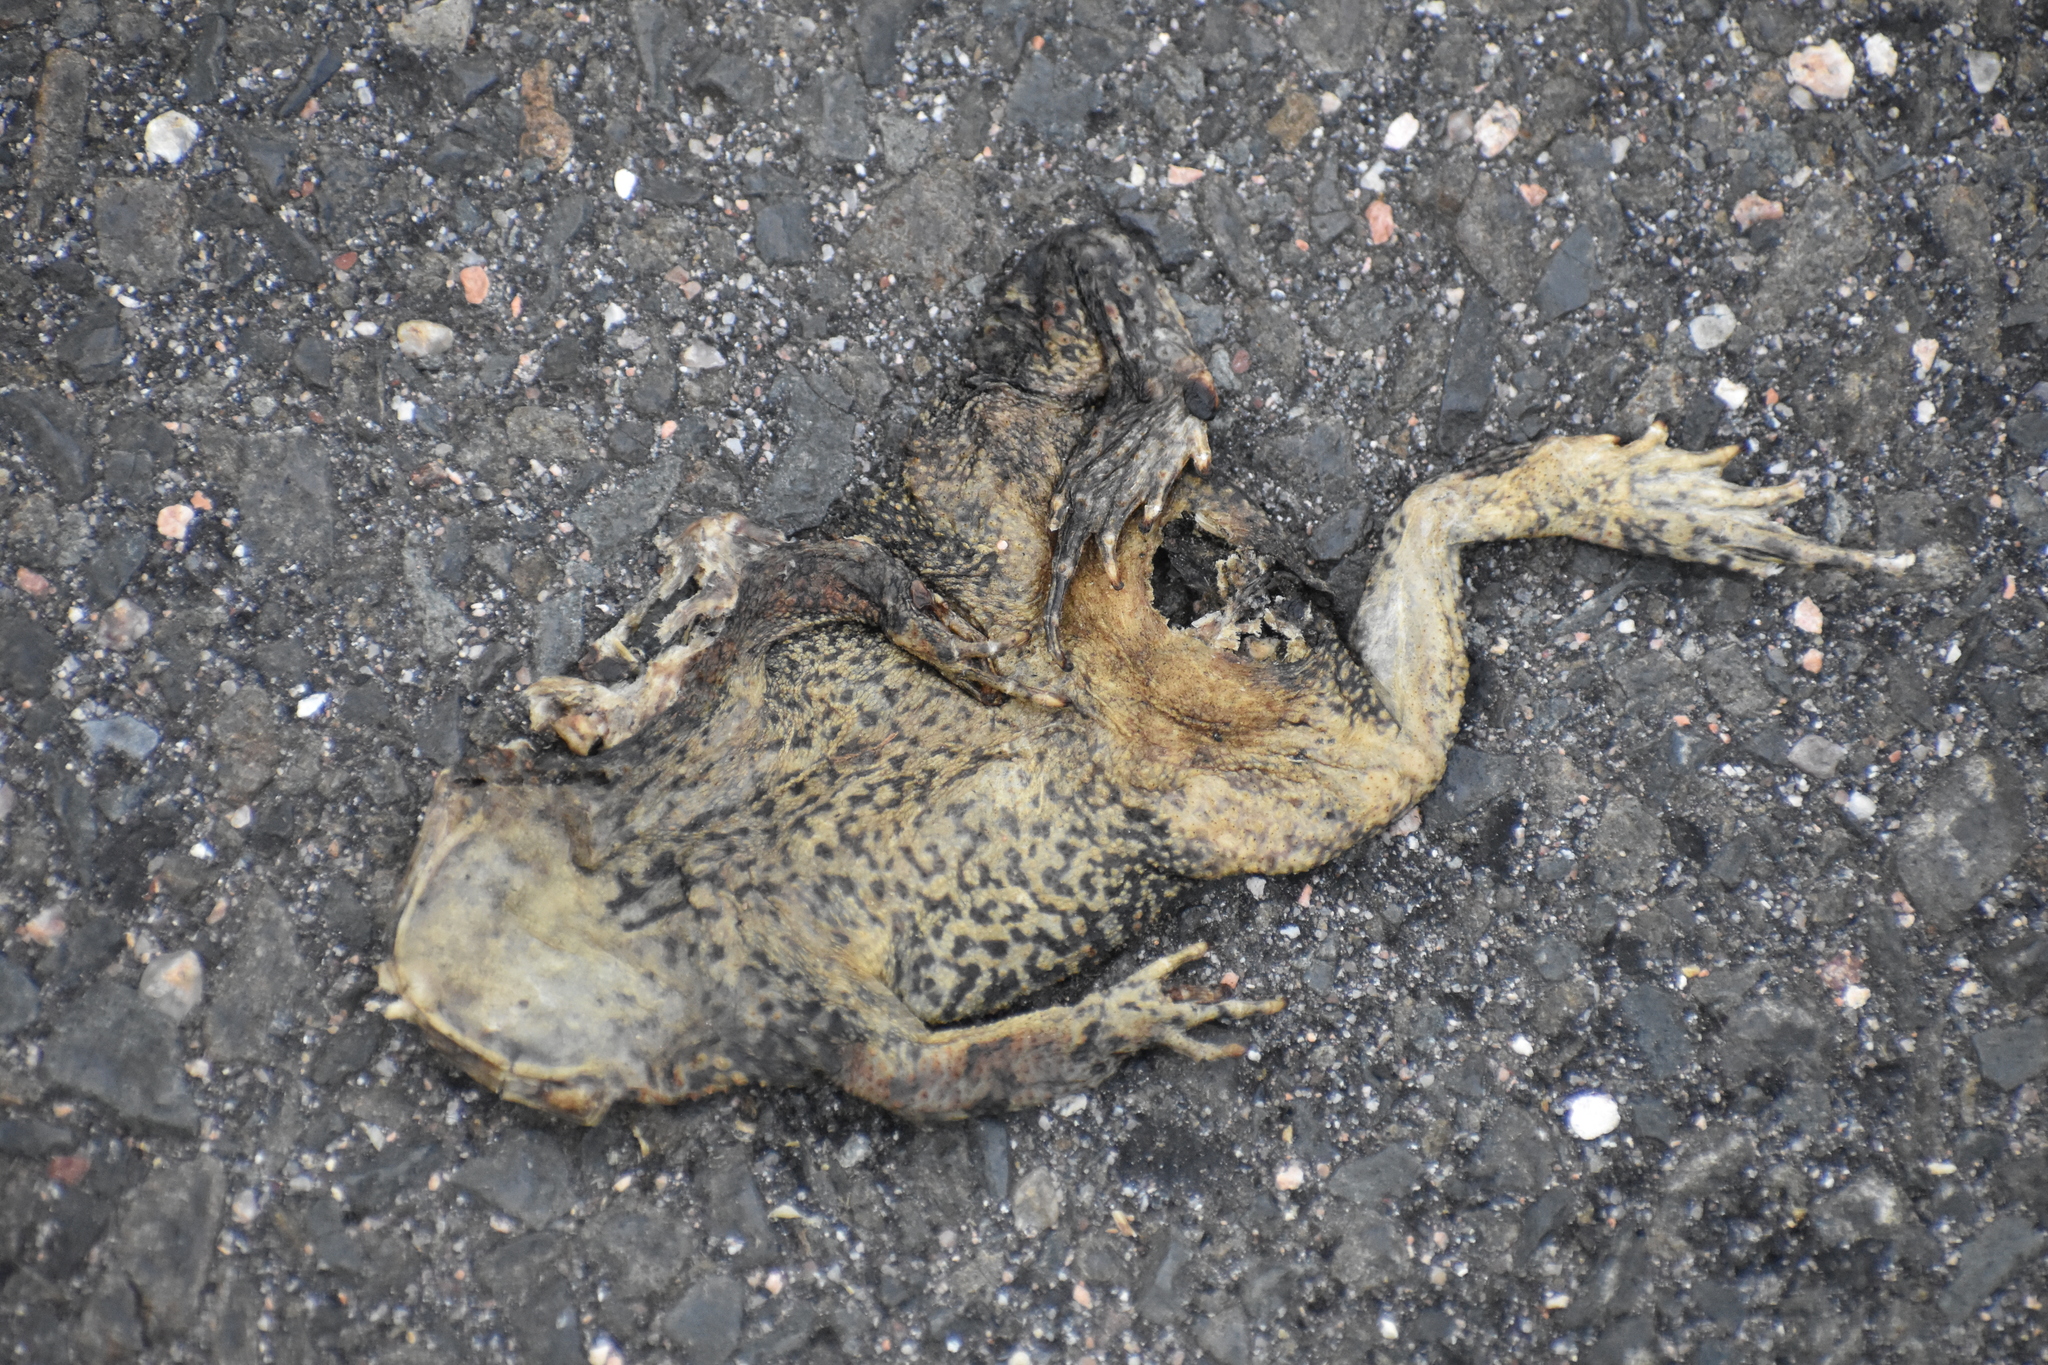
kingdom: Animalia
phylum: Chordata
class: Amphibia
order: Anura
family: Bufonidae
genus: Anaxyrus
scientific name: Anaxyrus americanus
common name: American toad
